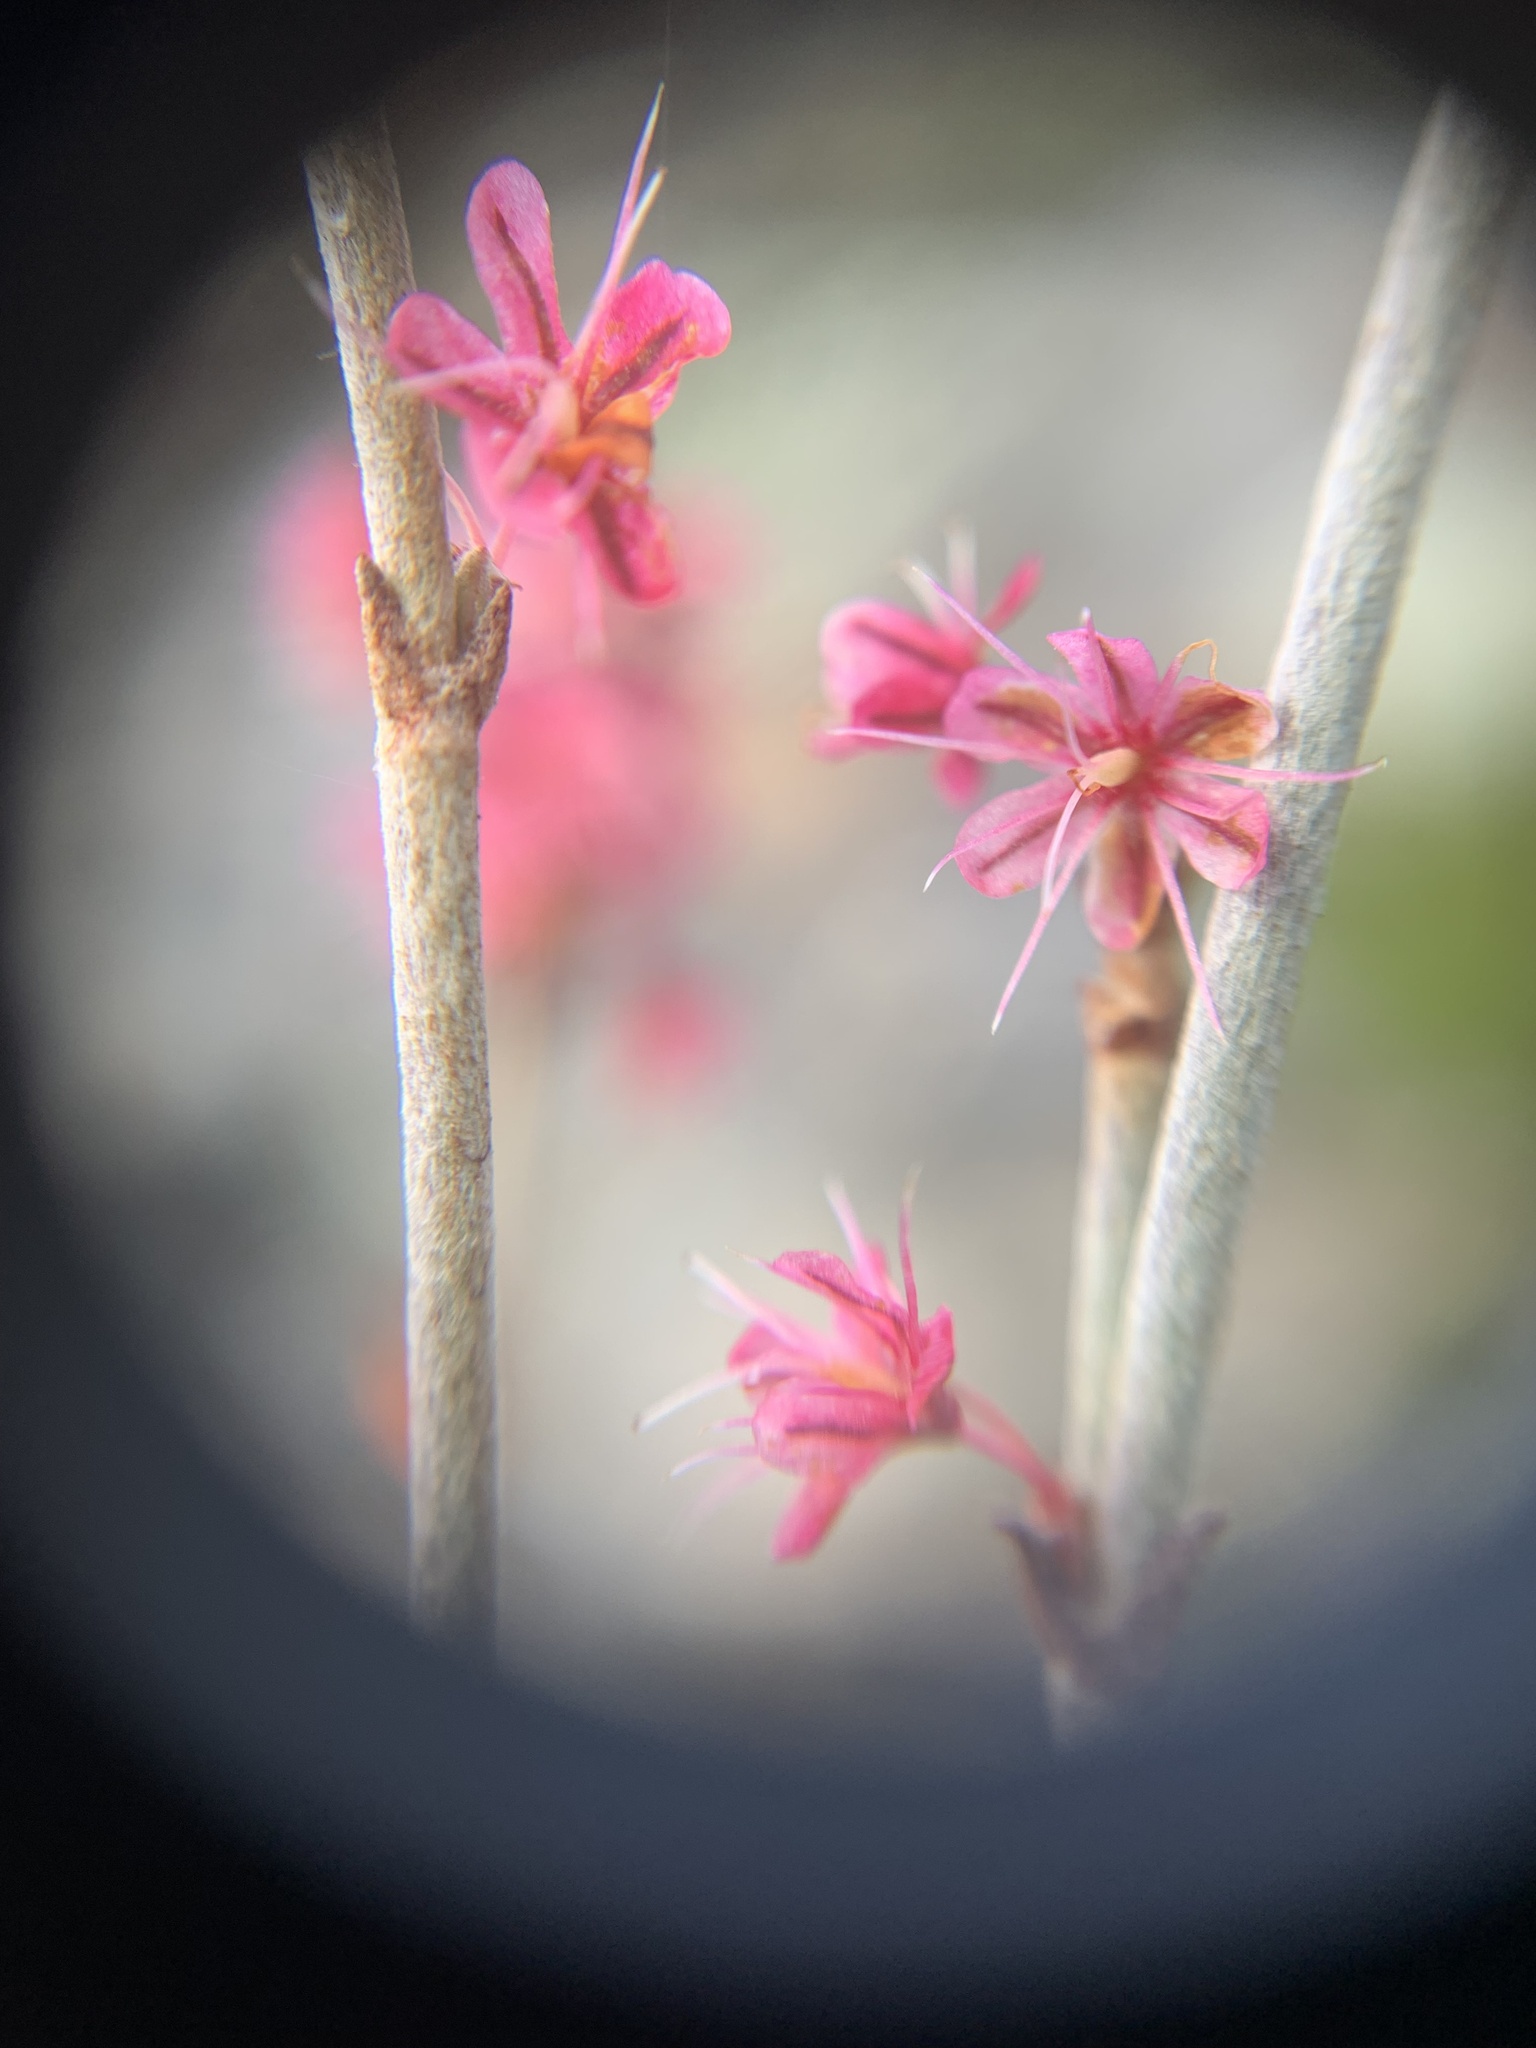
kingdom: Plantae
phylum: Tracheophyta
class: Magnoliopsida
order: Caryophyllales
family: Polygonaceae
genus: Eriogonum
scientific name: Eriogonum wrightii
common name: Bastard-sage
